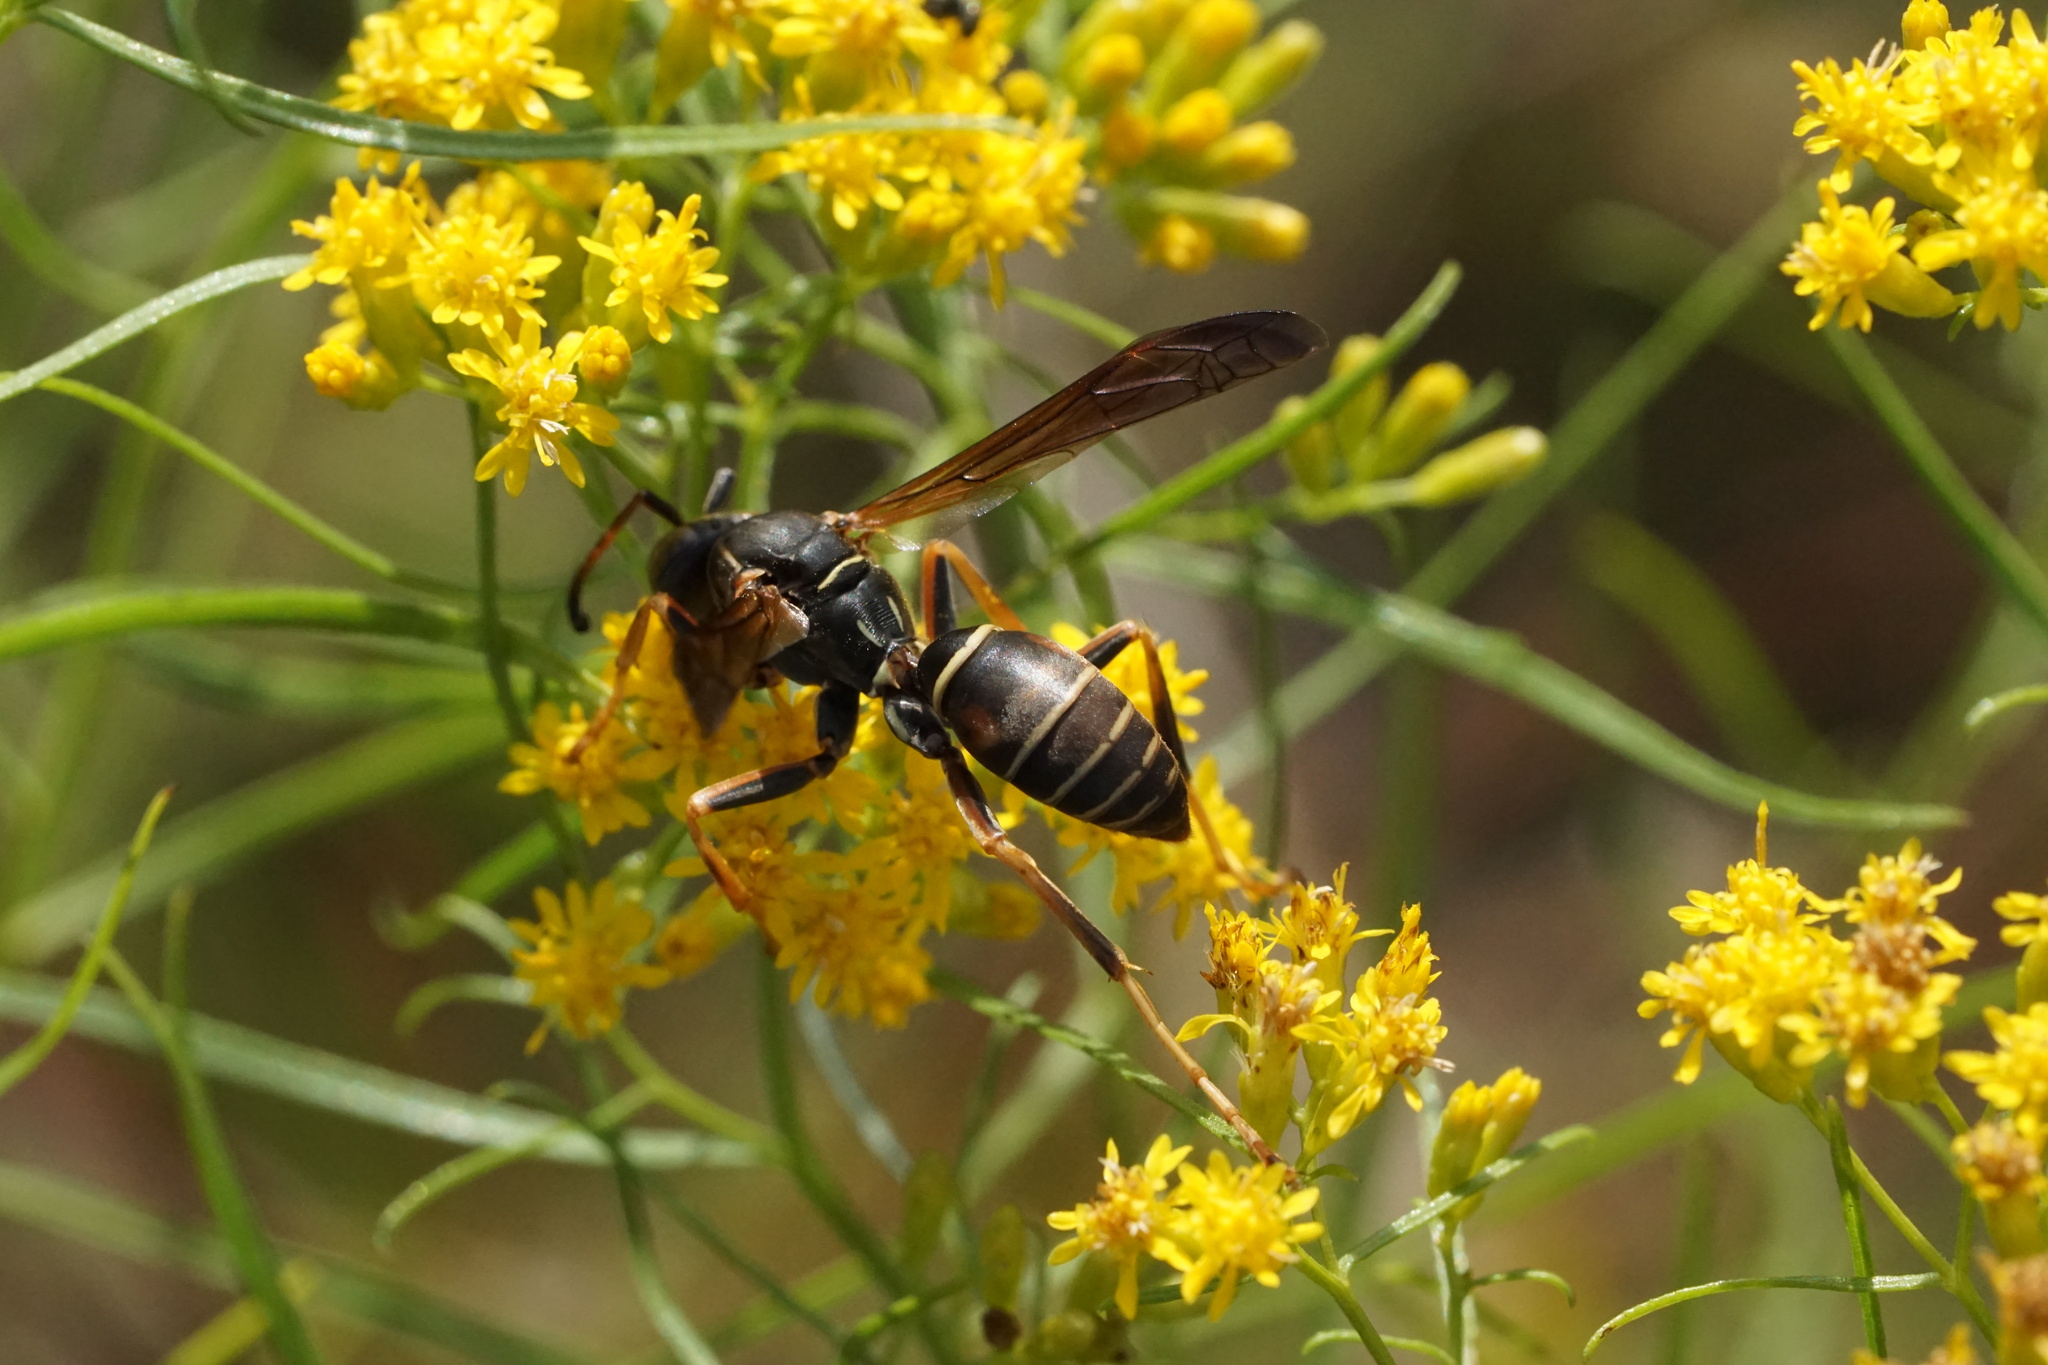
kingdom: Animalia
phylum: Arthropoda
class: Insecta
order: Hymenoptera
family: Eumenidae
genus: Polistes
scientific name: Polistes fuscatus
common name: Dark paper wasp
